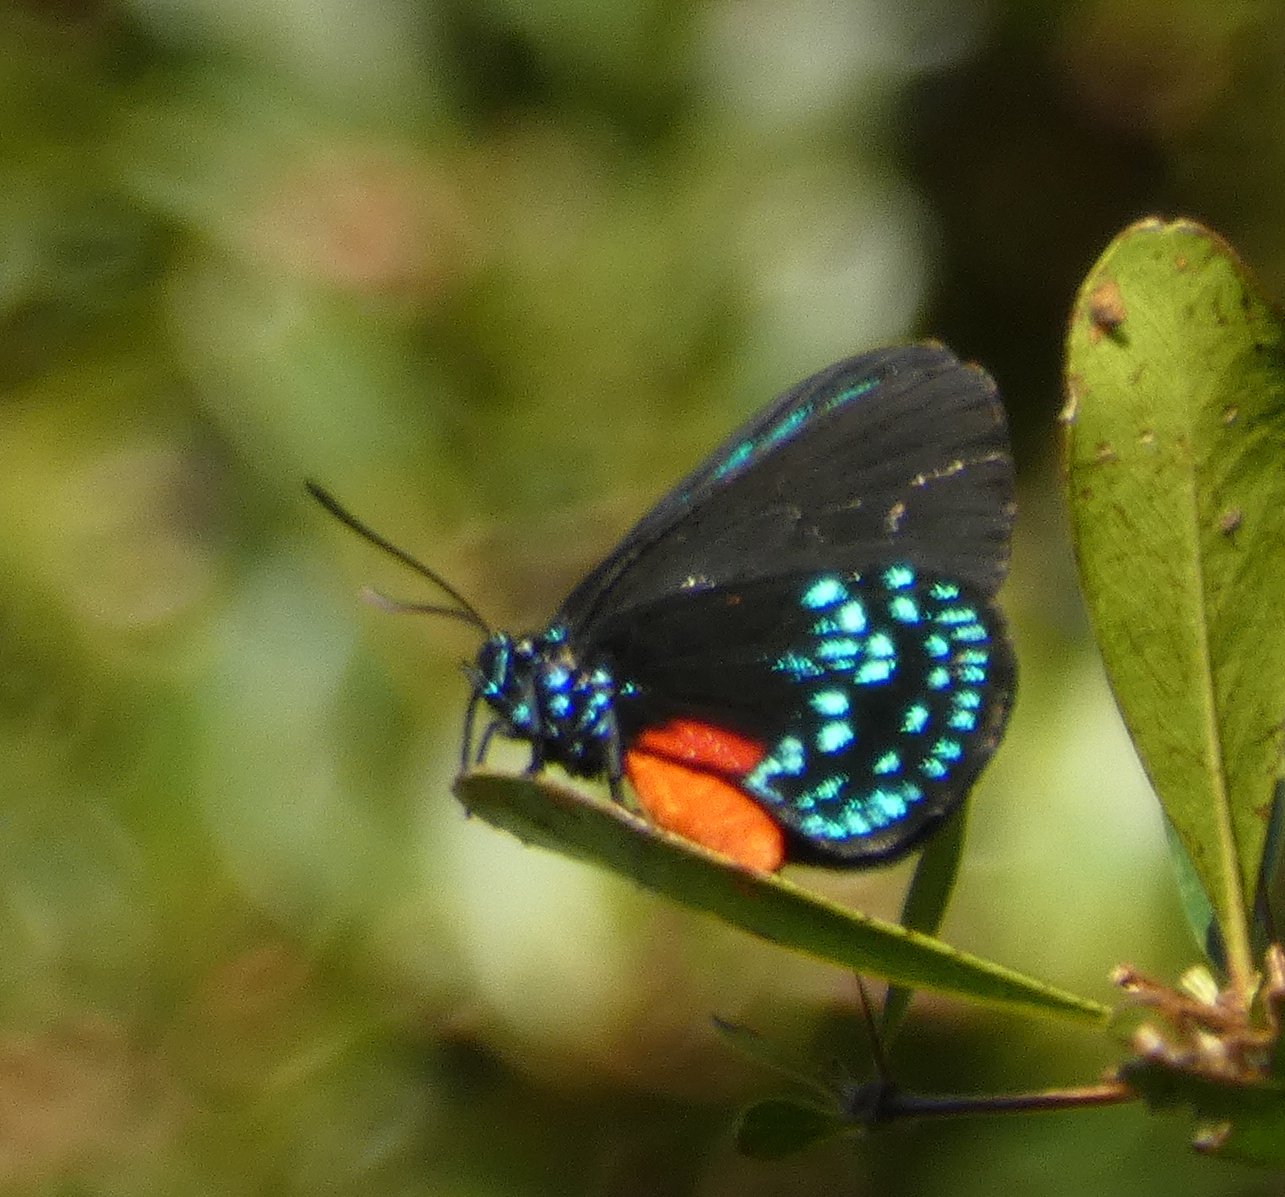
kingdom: Animalia
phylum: Arthropoda
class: Insecta
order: Lepidoptera
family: Lycaenidae
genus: Eumaeus
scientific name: Eumaeus atala
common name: Atala
